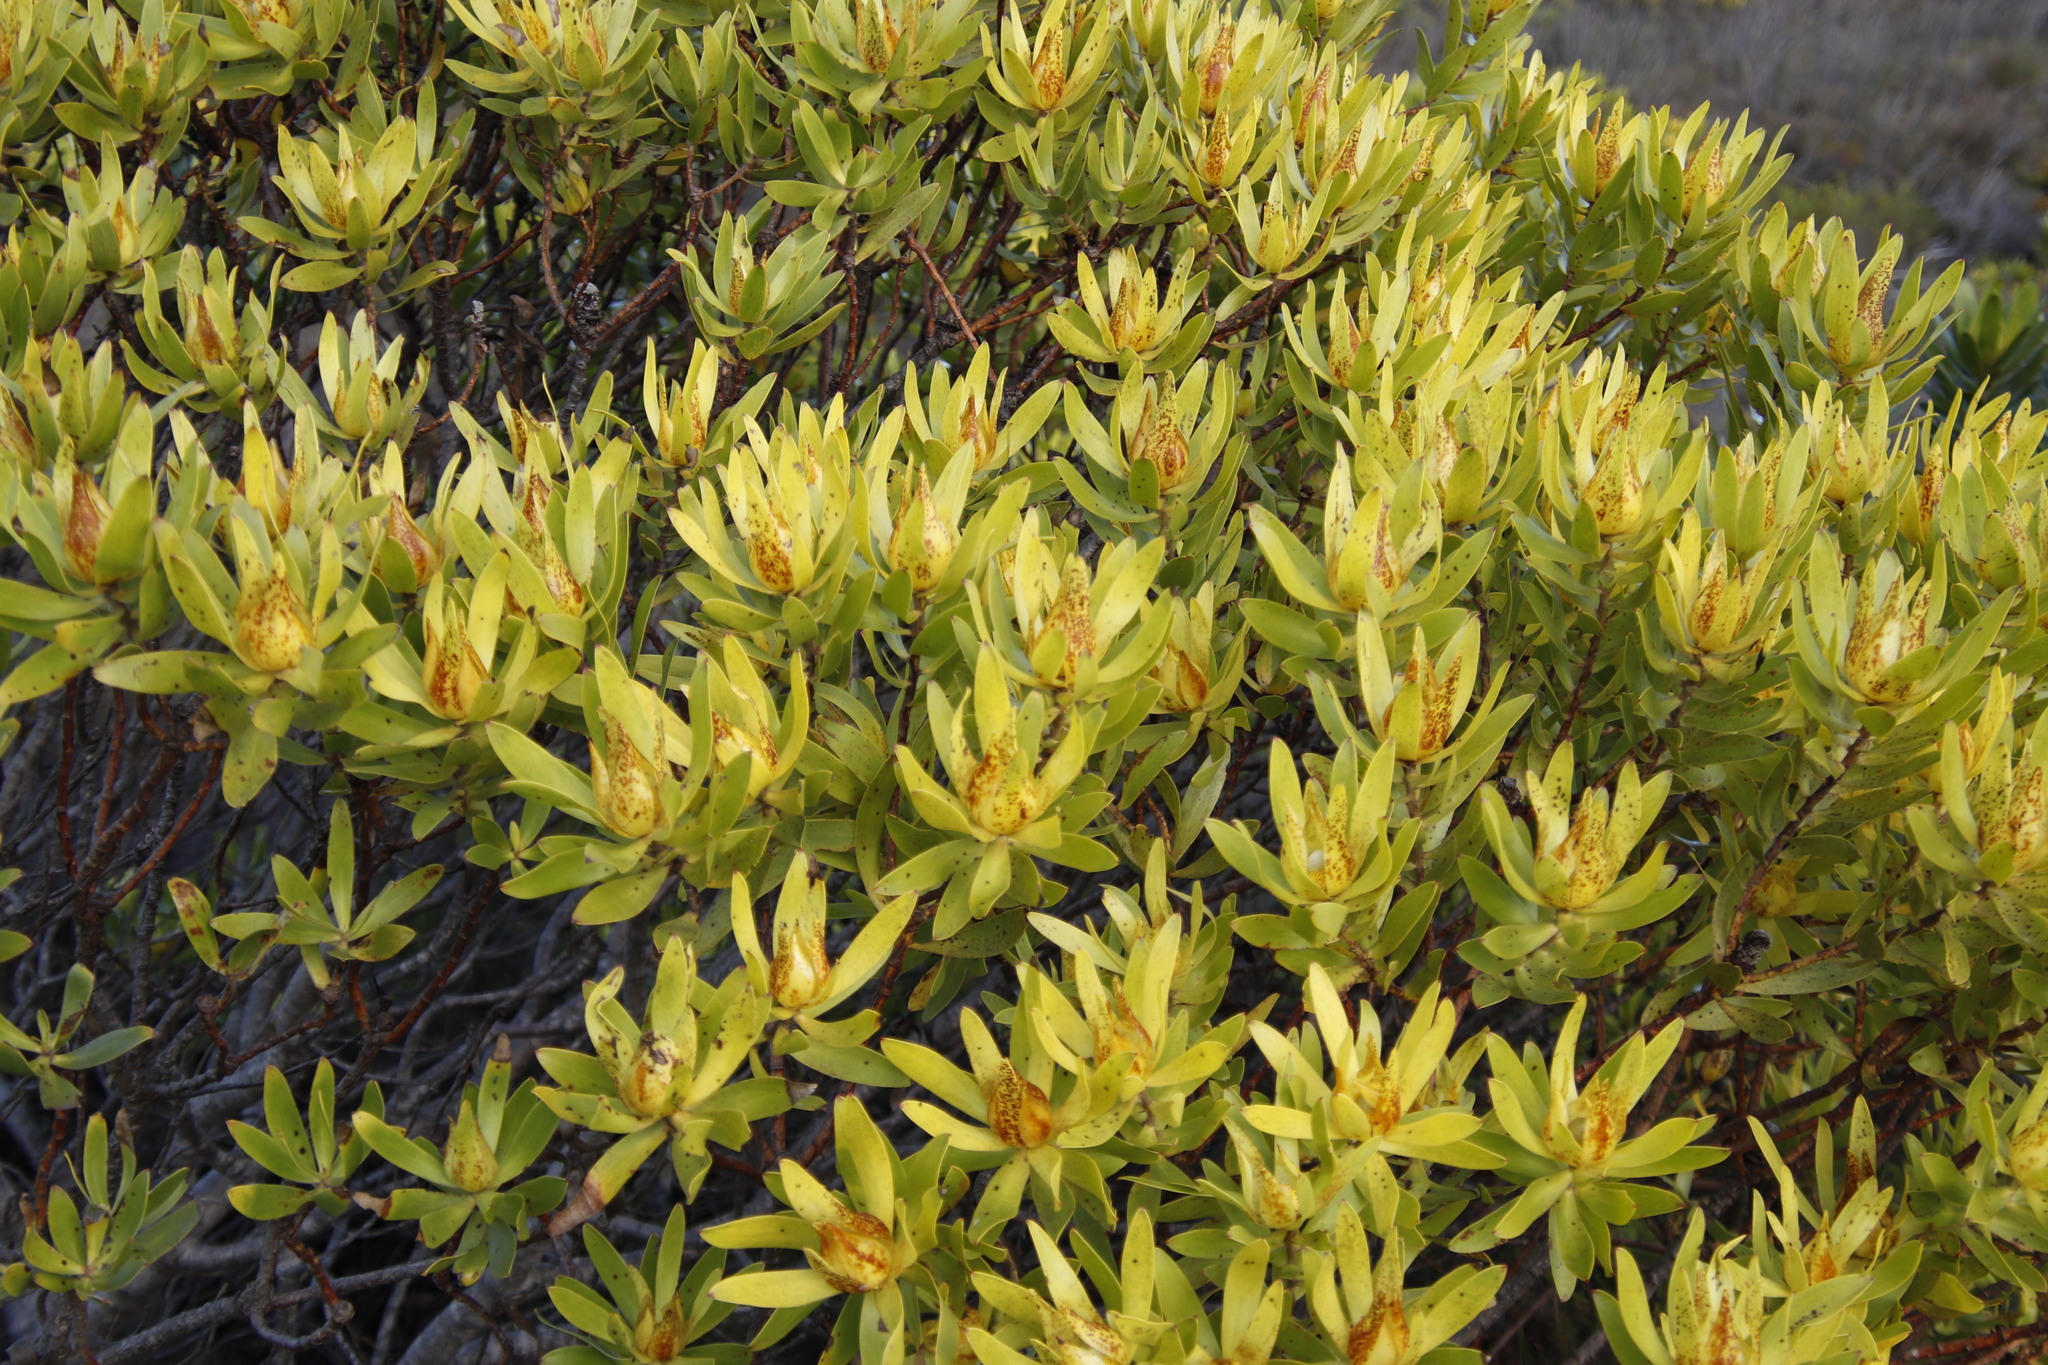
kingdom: Plantae
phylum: Tracheophyta
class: Magnoliopsida
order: Proteales
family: Proteaceae
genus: Leucadendron
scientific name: Leucadendron laureolum
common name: Golden sunshinebush
